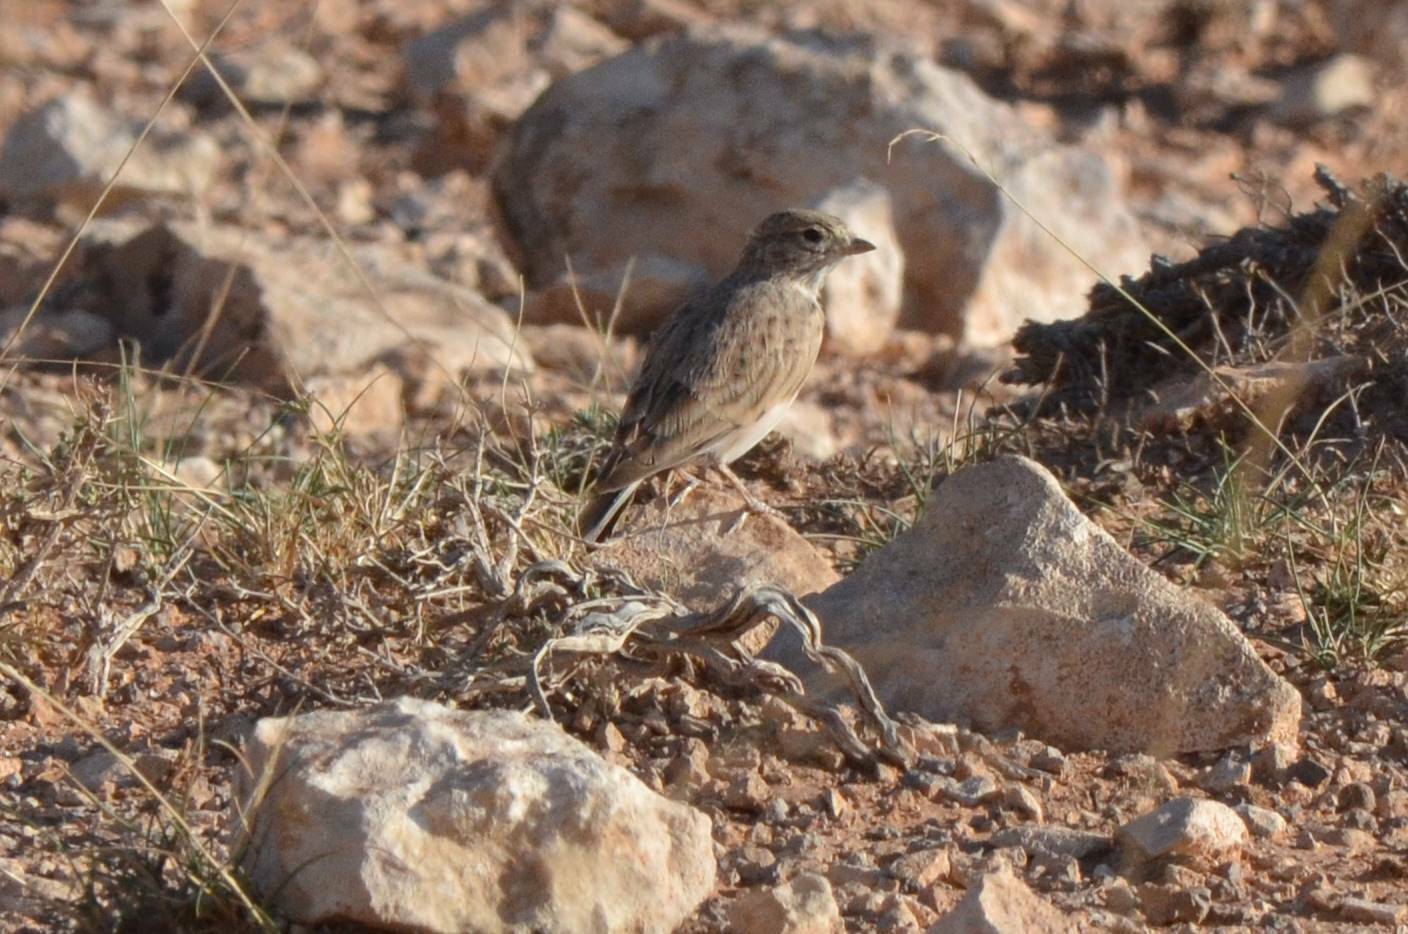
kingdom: Animalia
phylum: Chordata
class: Aves
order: Passeriformes
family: Alaudidae
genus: Calandrella
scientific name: Calandrella rufescens
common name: Lesser short-toed lark
